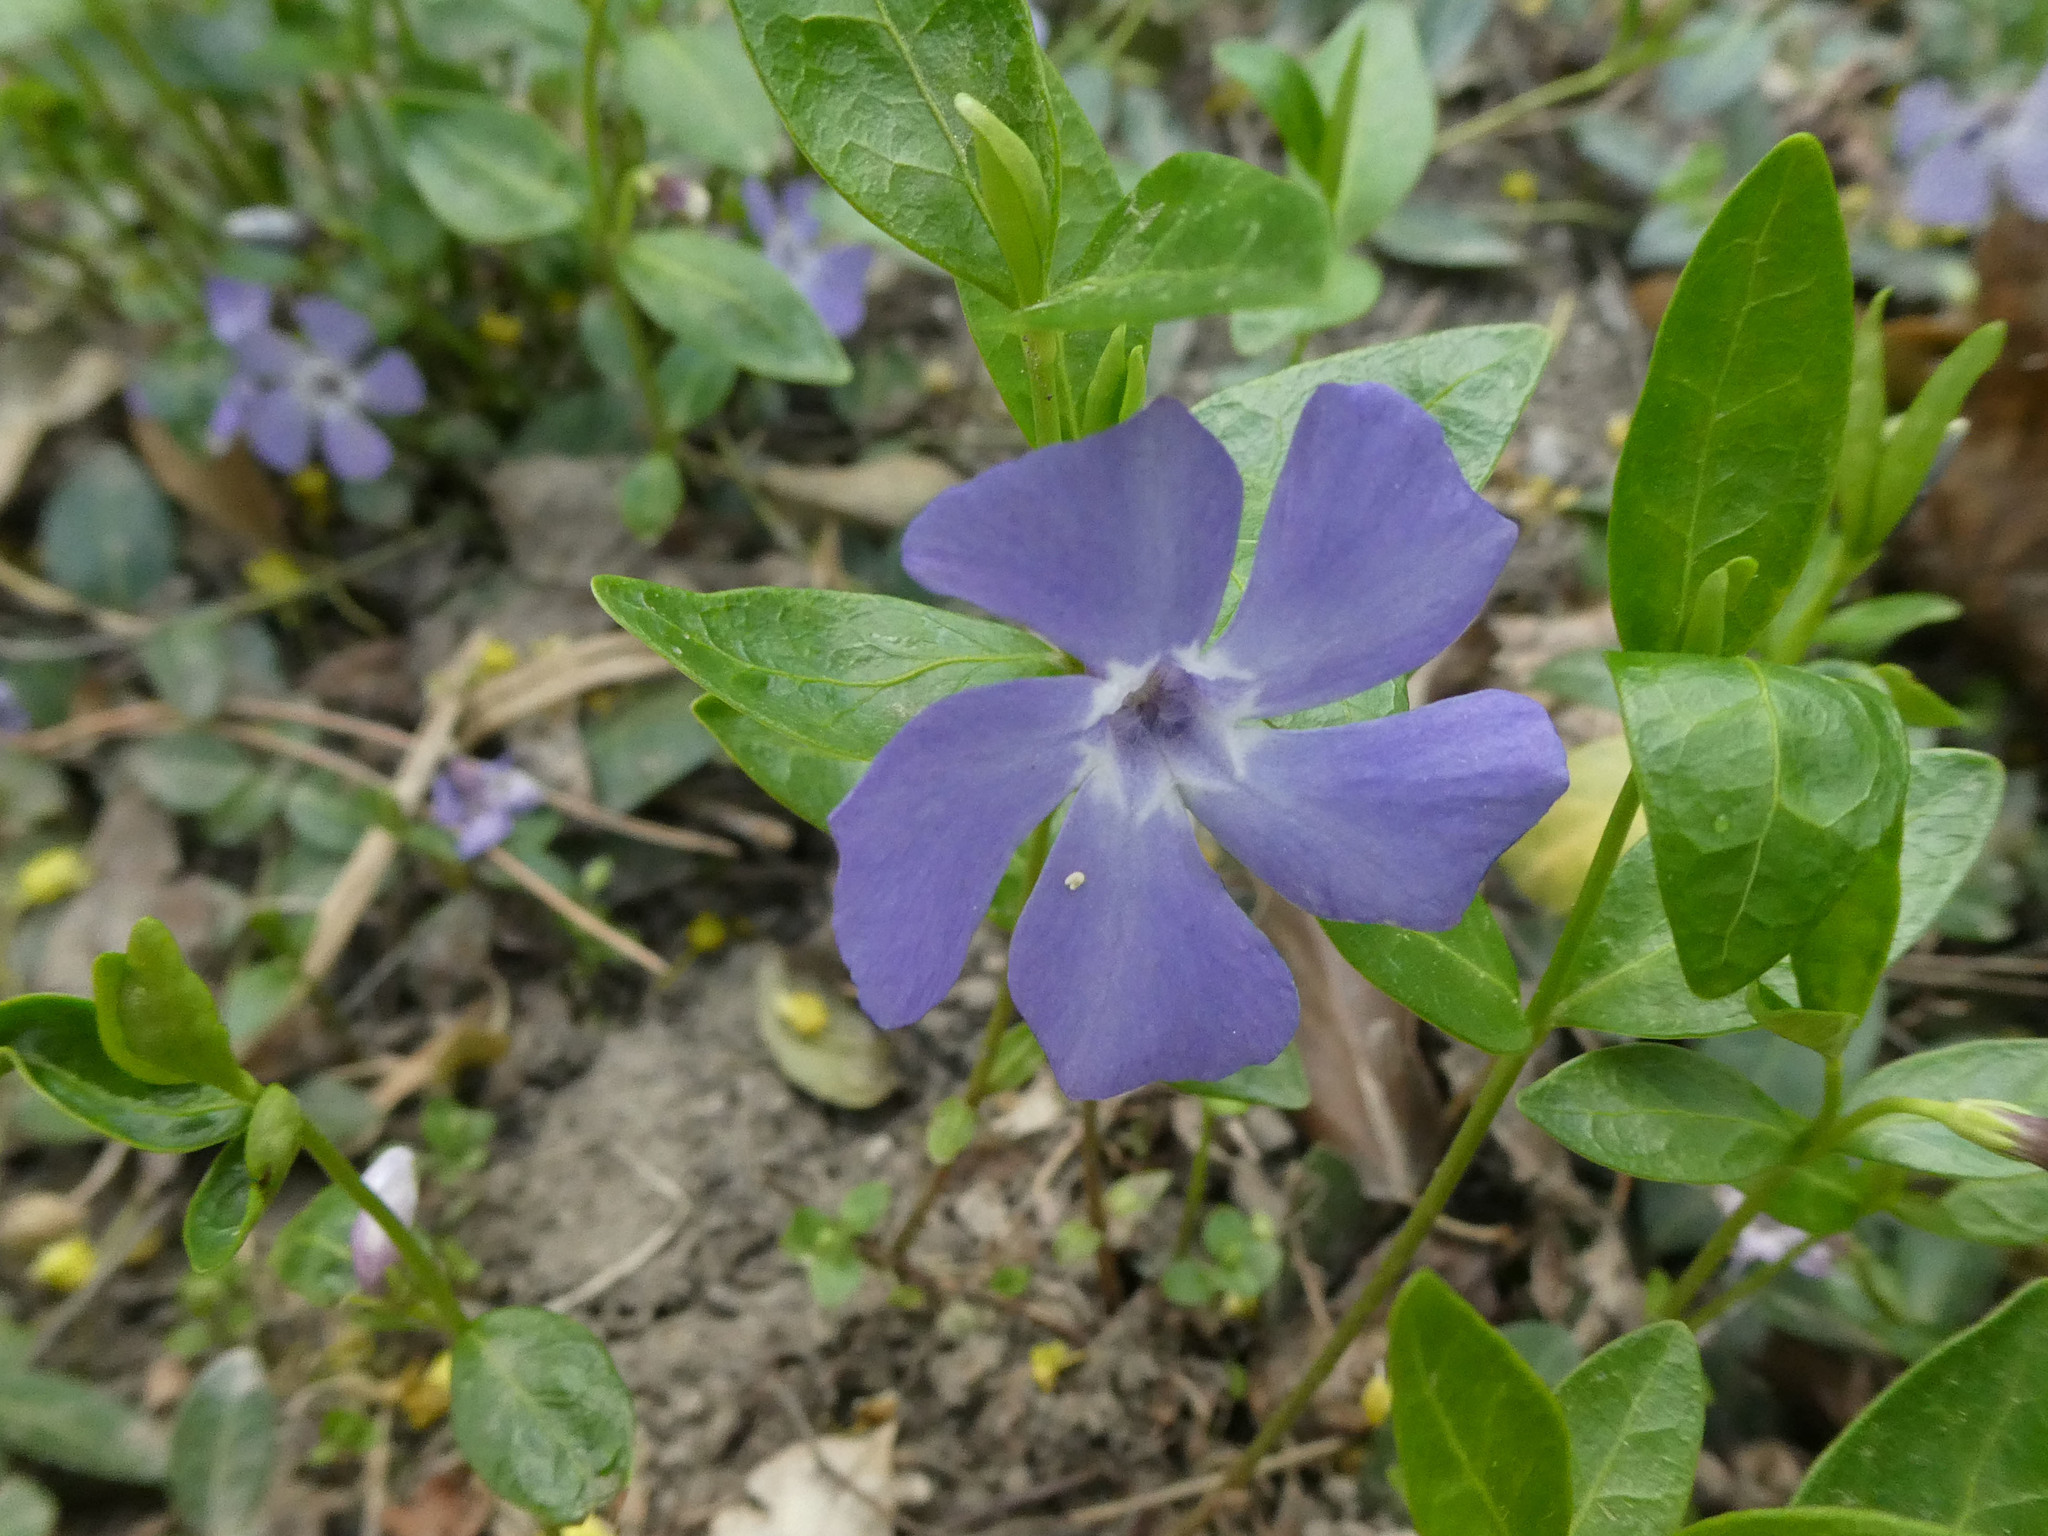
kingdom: Plantae
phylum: Tracheophyta
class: Magnoliopsida
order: Gentianales
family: Apocynaceae
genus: Vinca
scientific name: Vinca minor
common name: Lesser periwinkle
